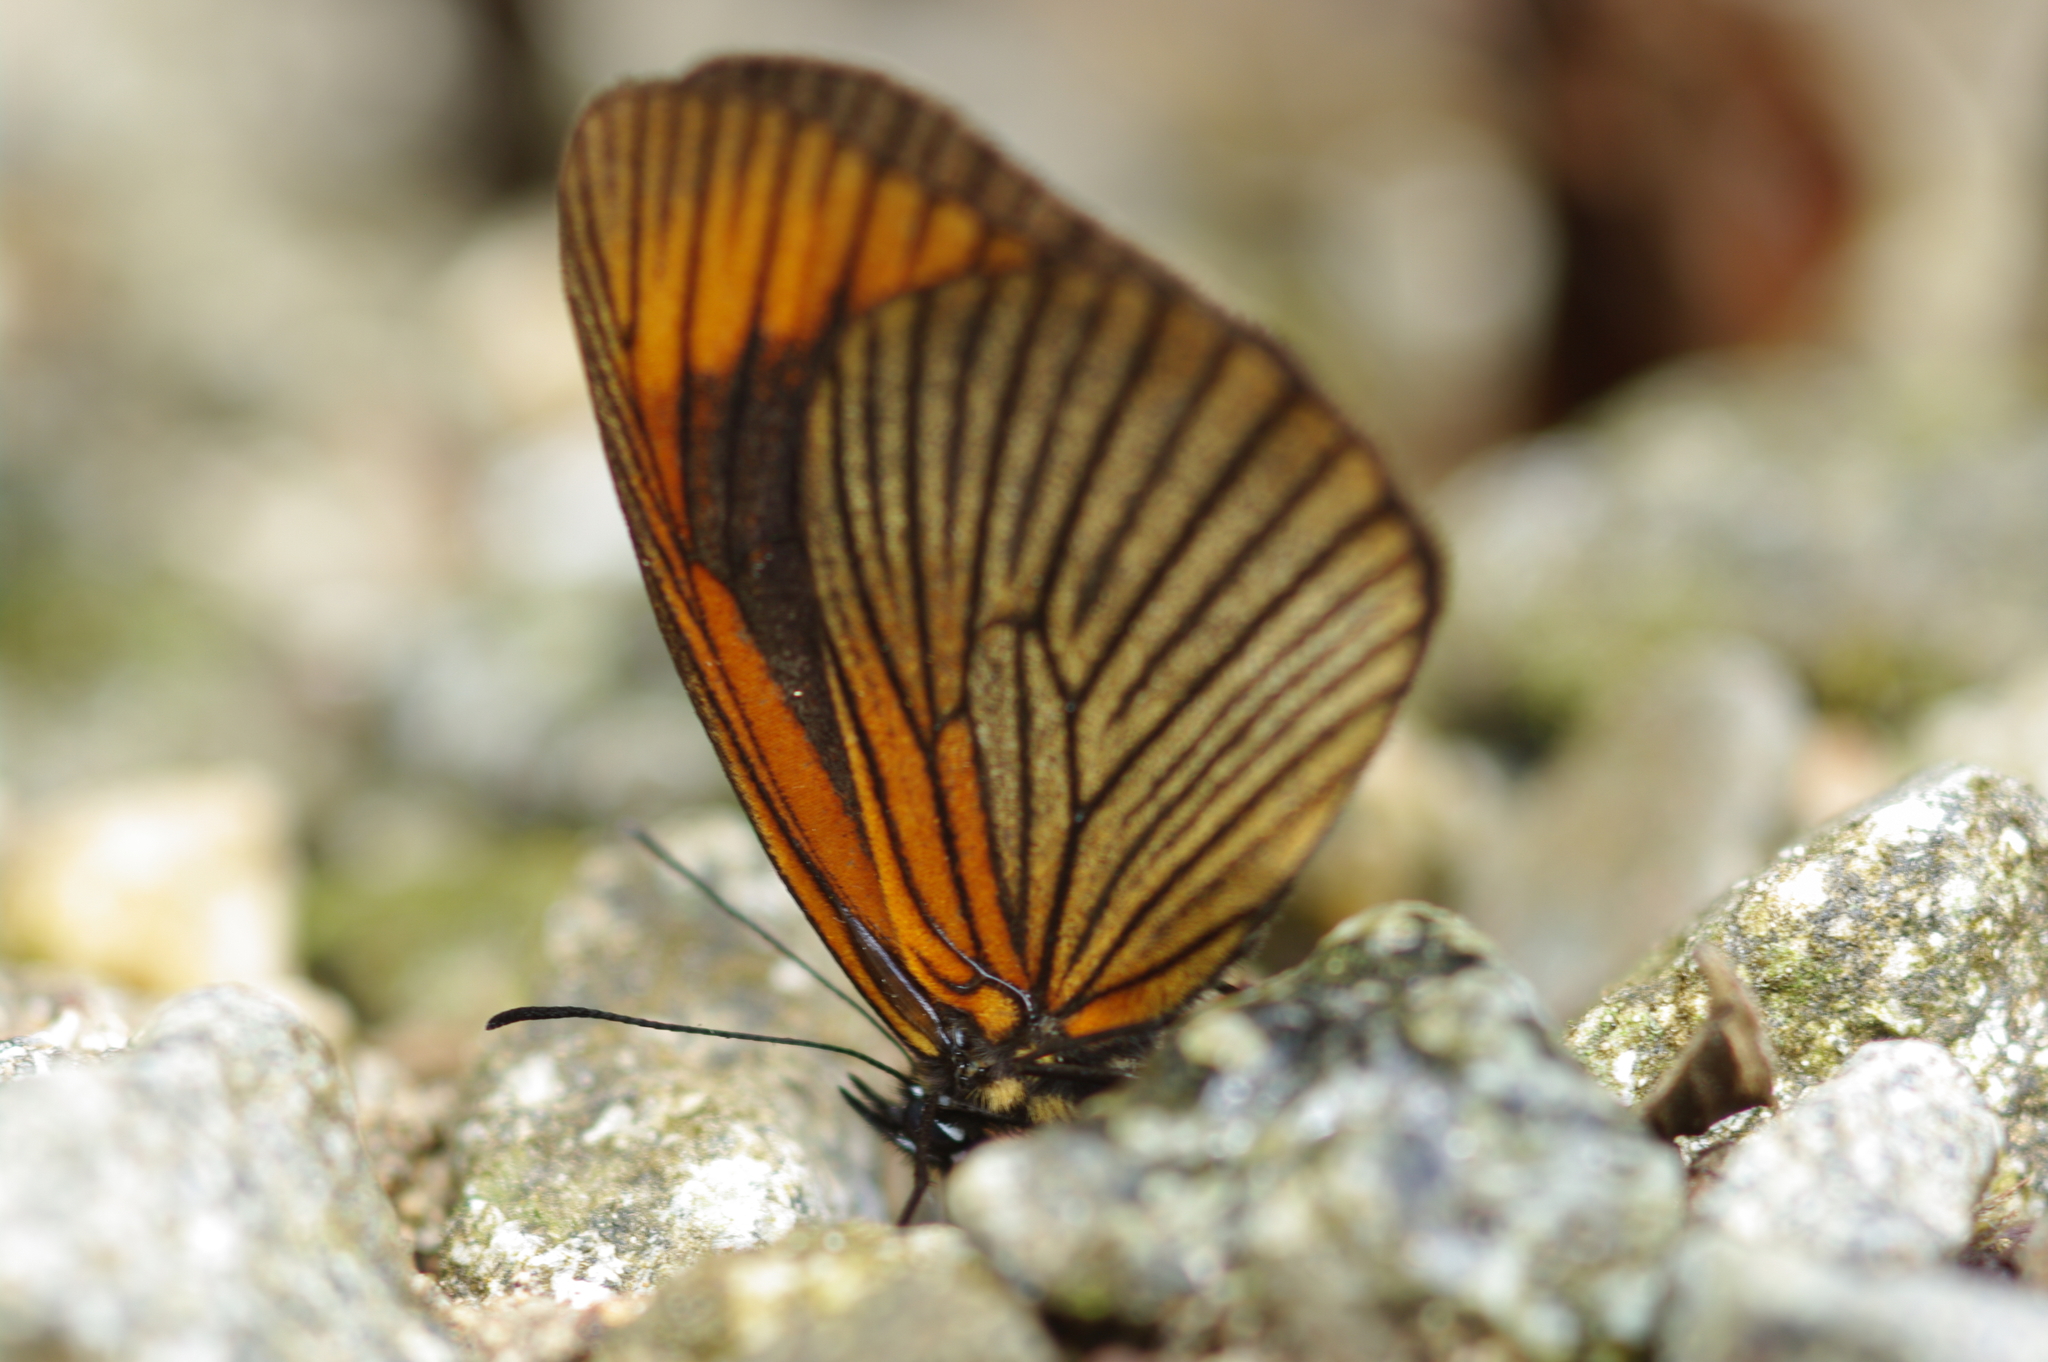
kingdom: Animalia
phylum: Arthropoda
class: Insecta
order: Lepidoptera
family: Nymphalidae
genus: Lymanopoda
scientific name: Lymanopoda acraeida
